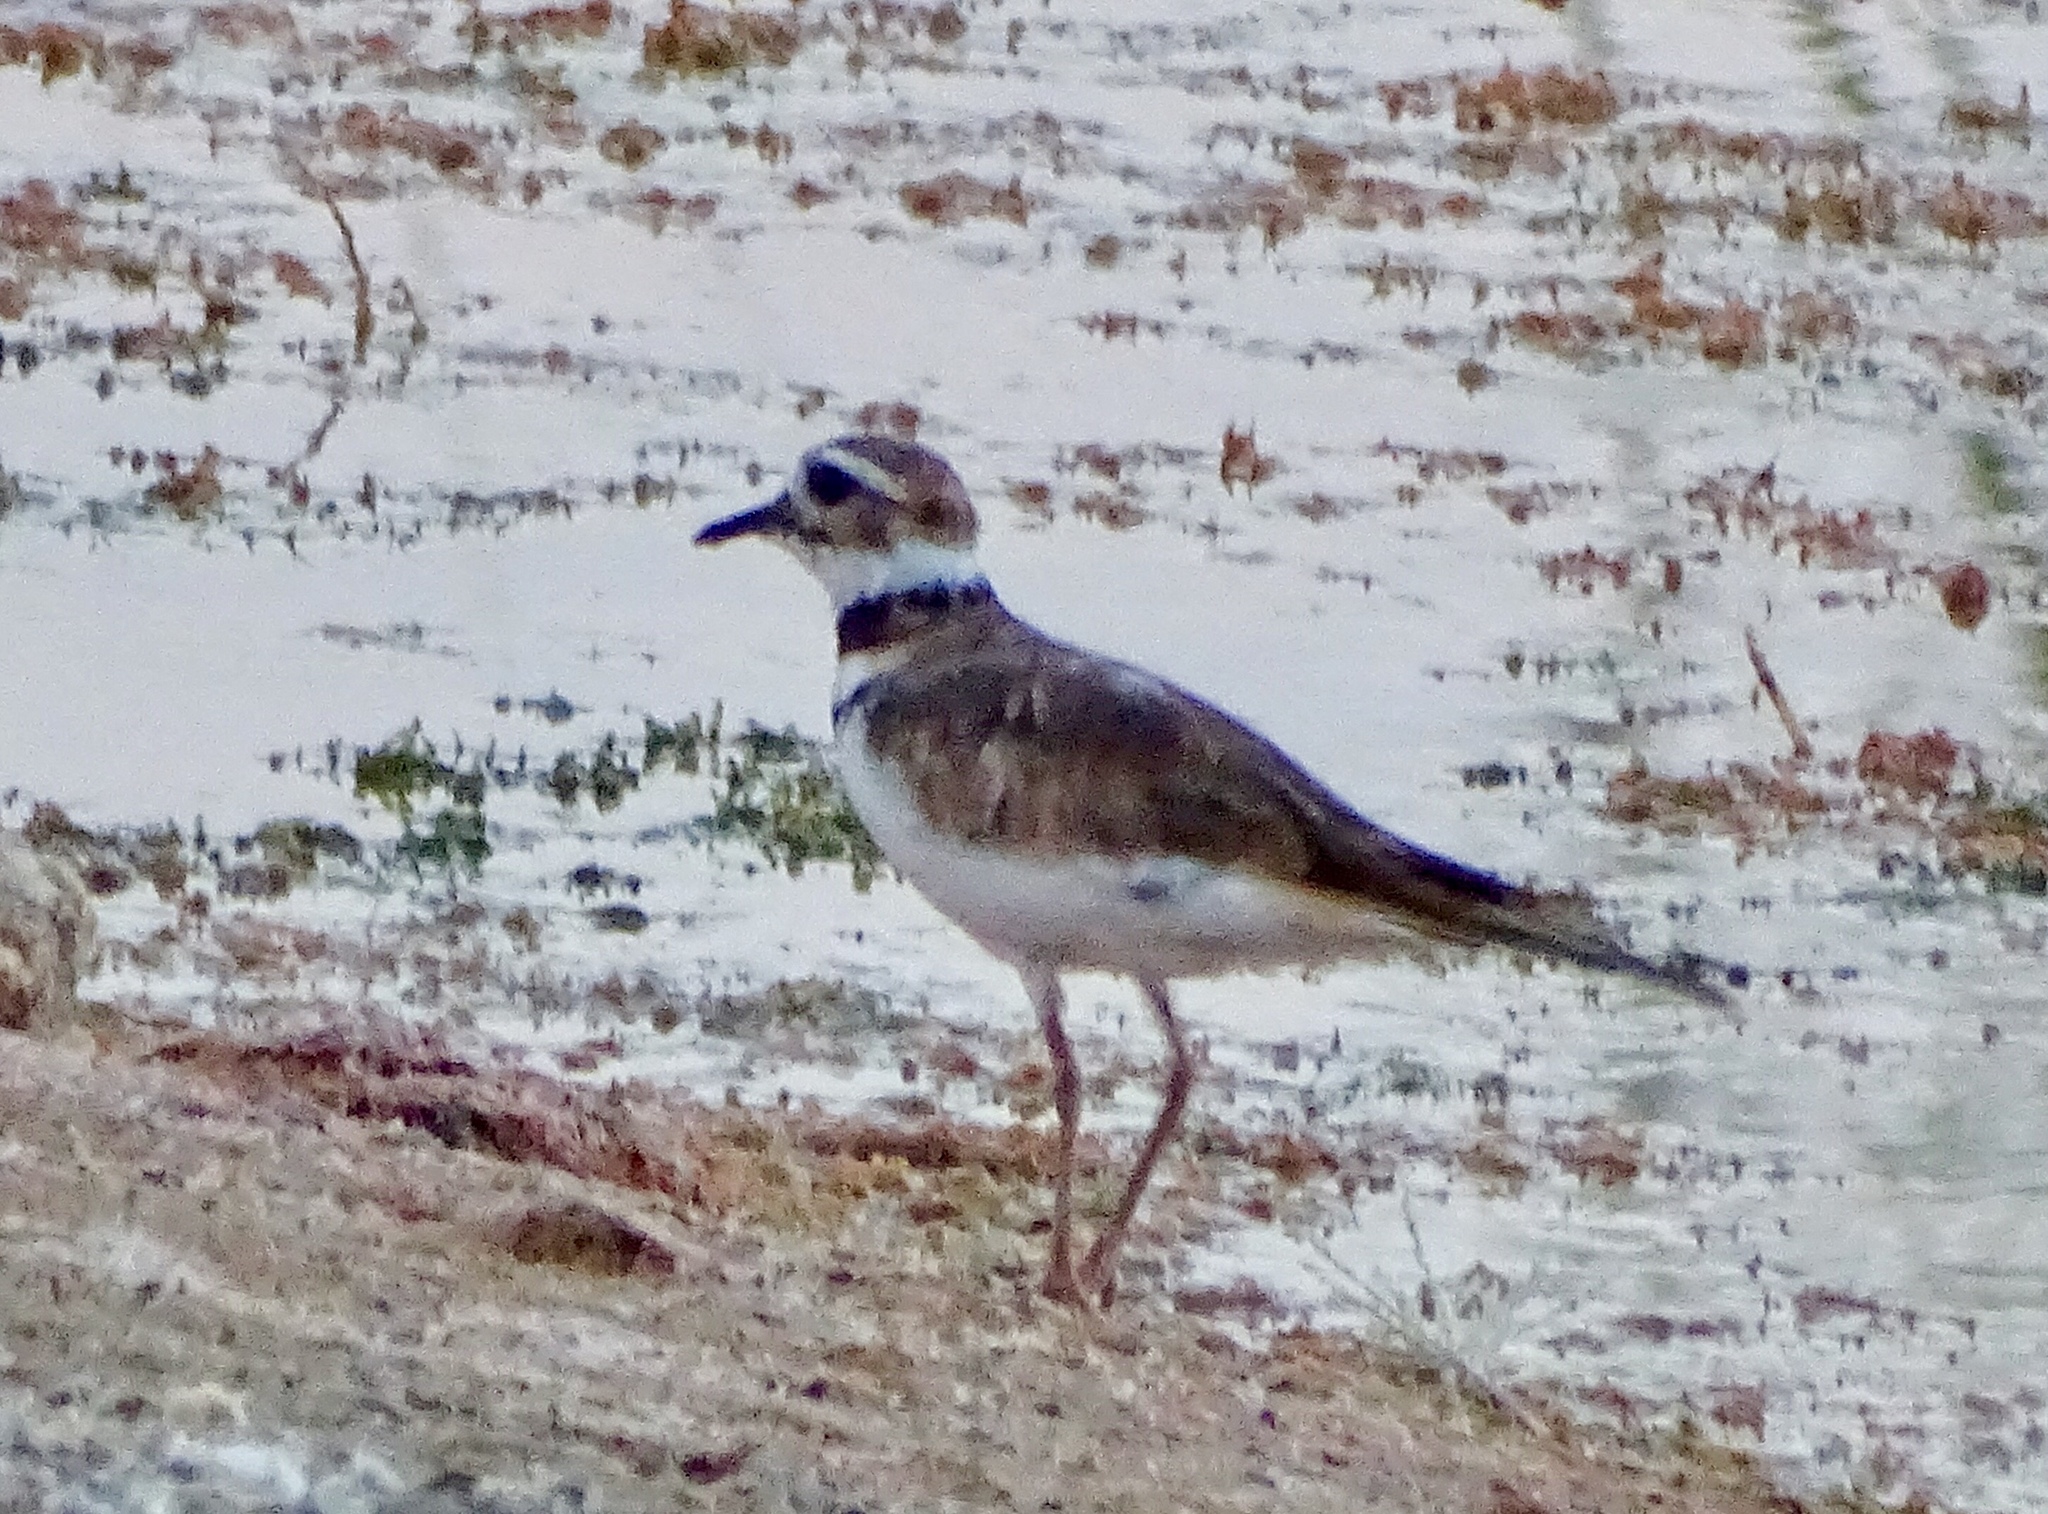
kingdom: Animalia
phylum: Chordata
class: Aves
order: Charadriiformes
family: Charadriidae
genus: Charadrius
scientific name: Charadrius vociferus
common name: Killdeer
